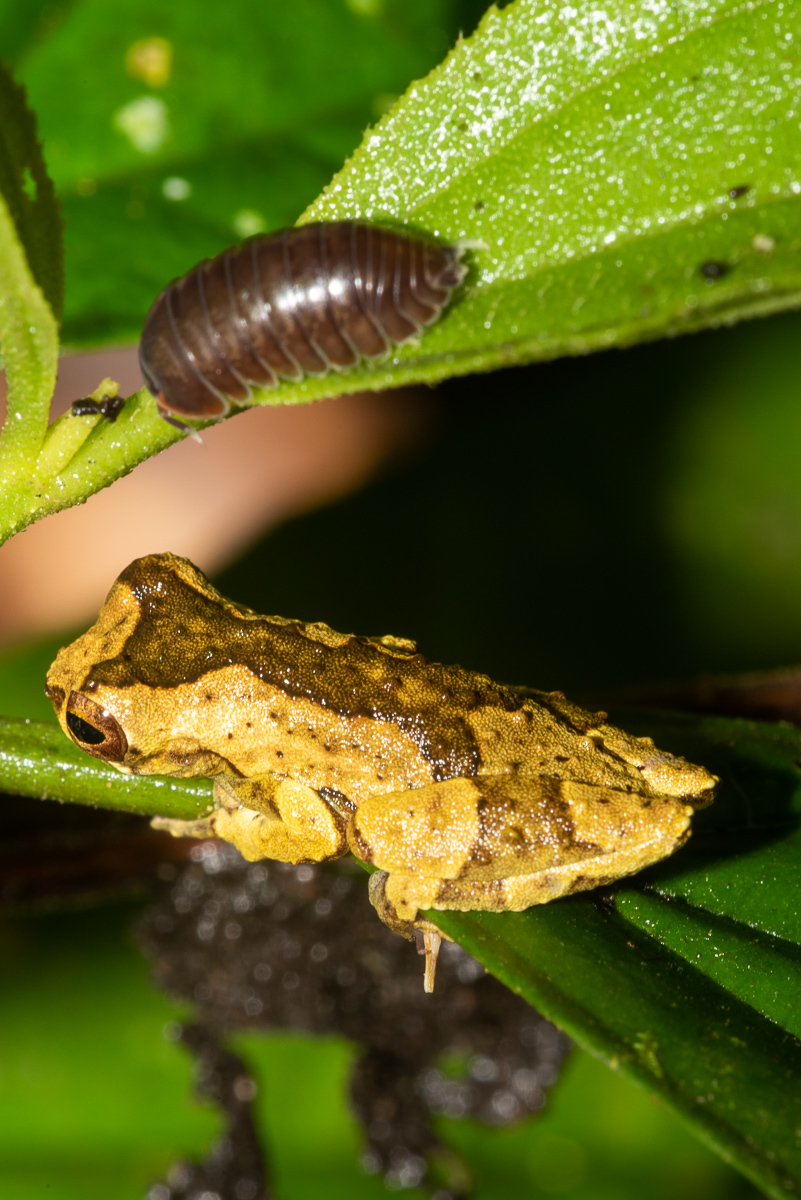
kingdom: Animalia
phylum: Arthropoda
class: Malacostraca
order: Isopoda
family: Scleropactidae
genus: Circoniscus
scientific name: Circoniscus ornatus
